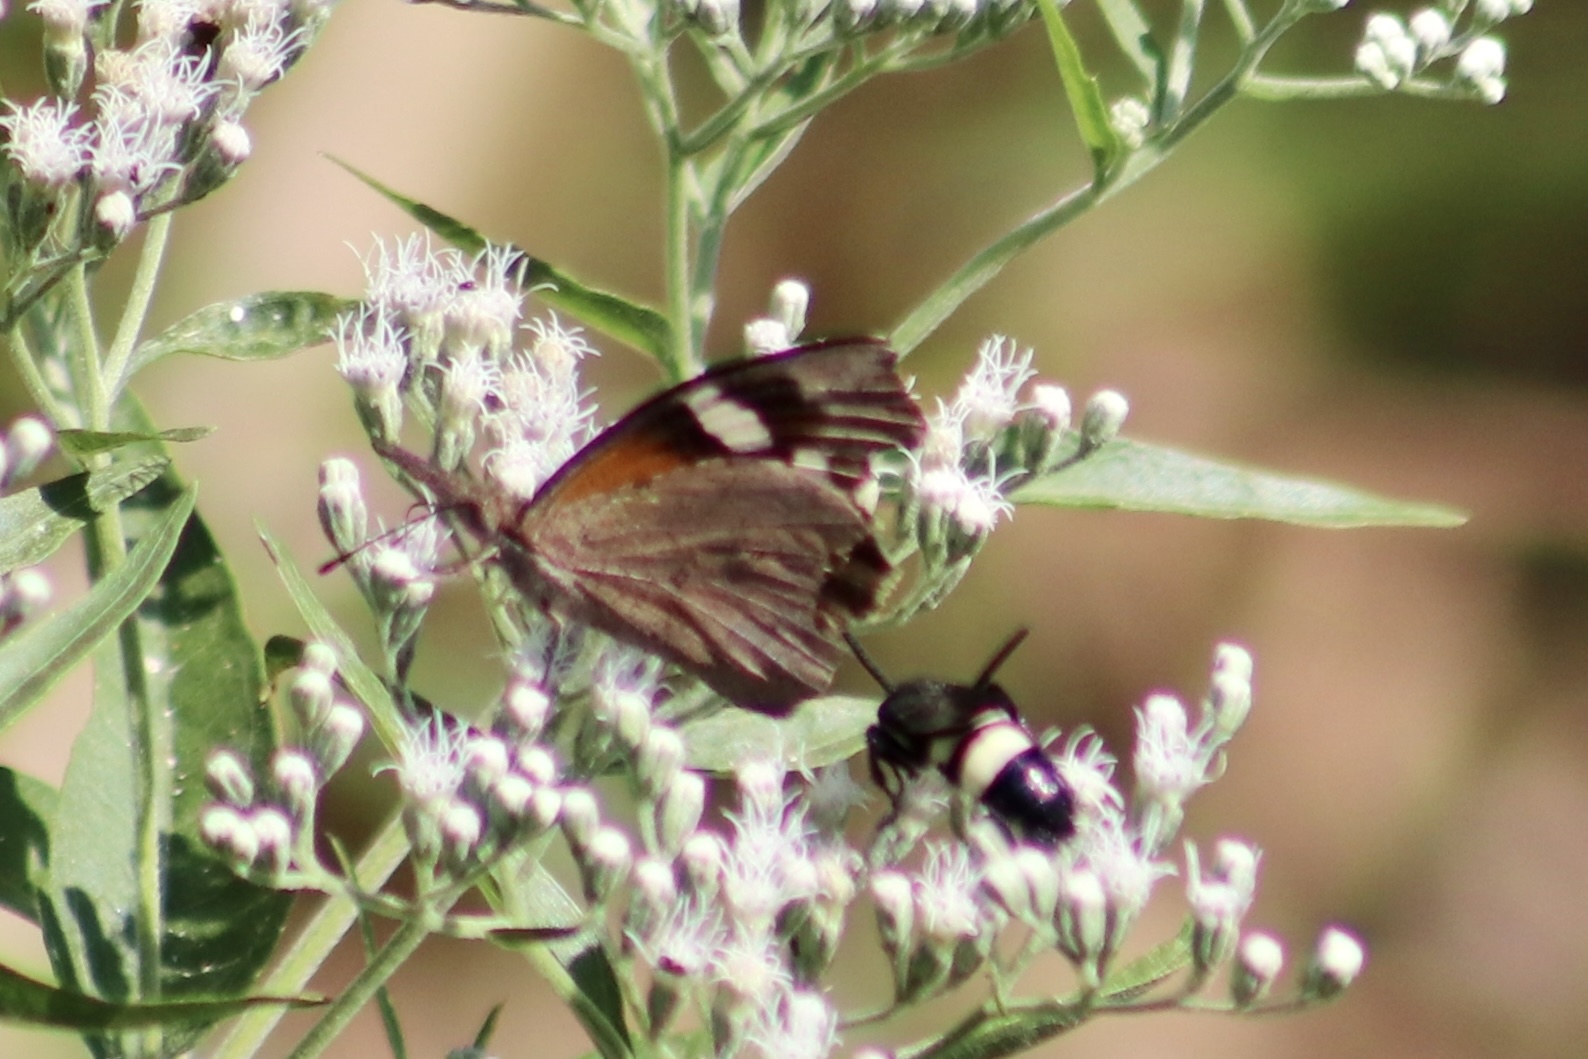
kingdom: Animalia
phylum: Arthropoda
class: Insecta
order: Lepidoptera
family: Nymphalidae
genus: Libytheana
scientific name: Libytheana carinenta
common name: American snout
